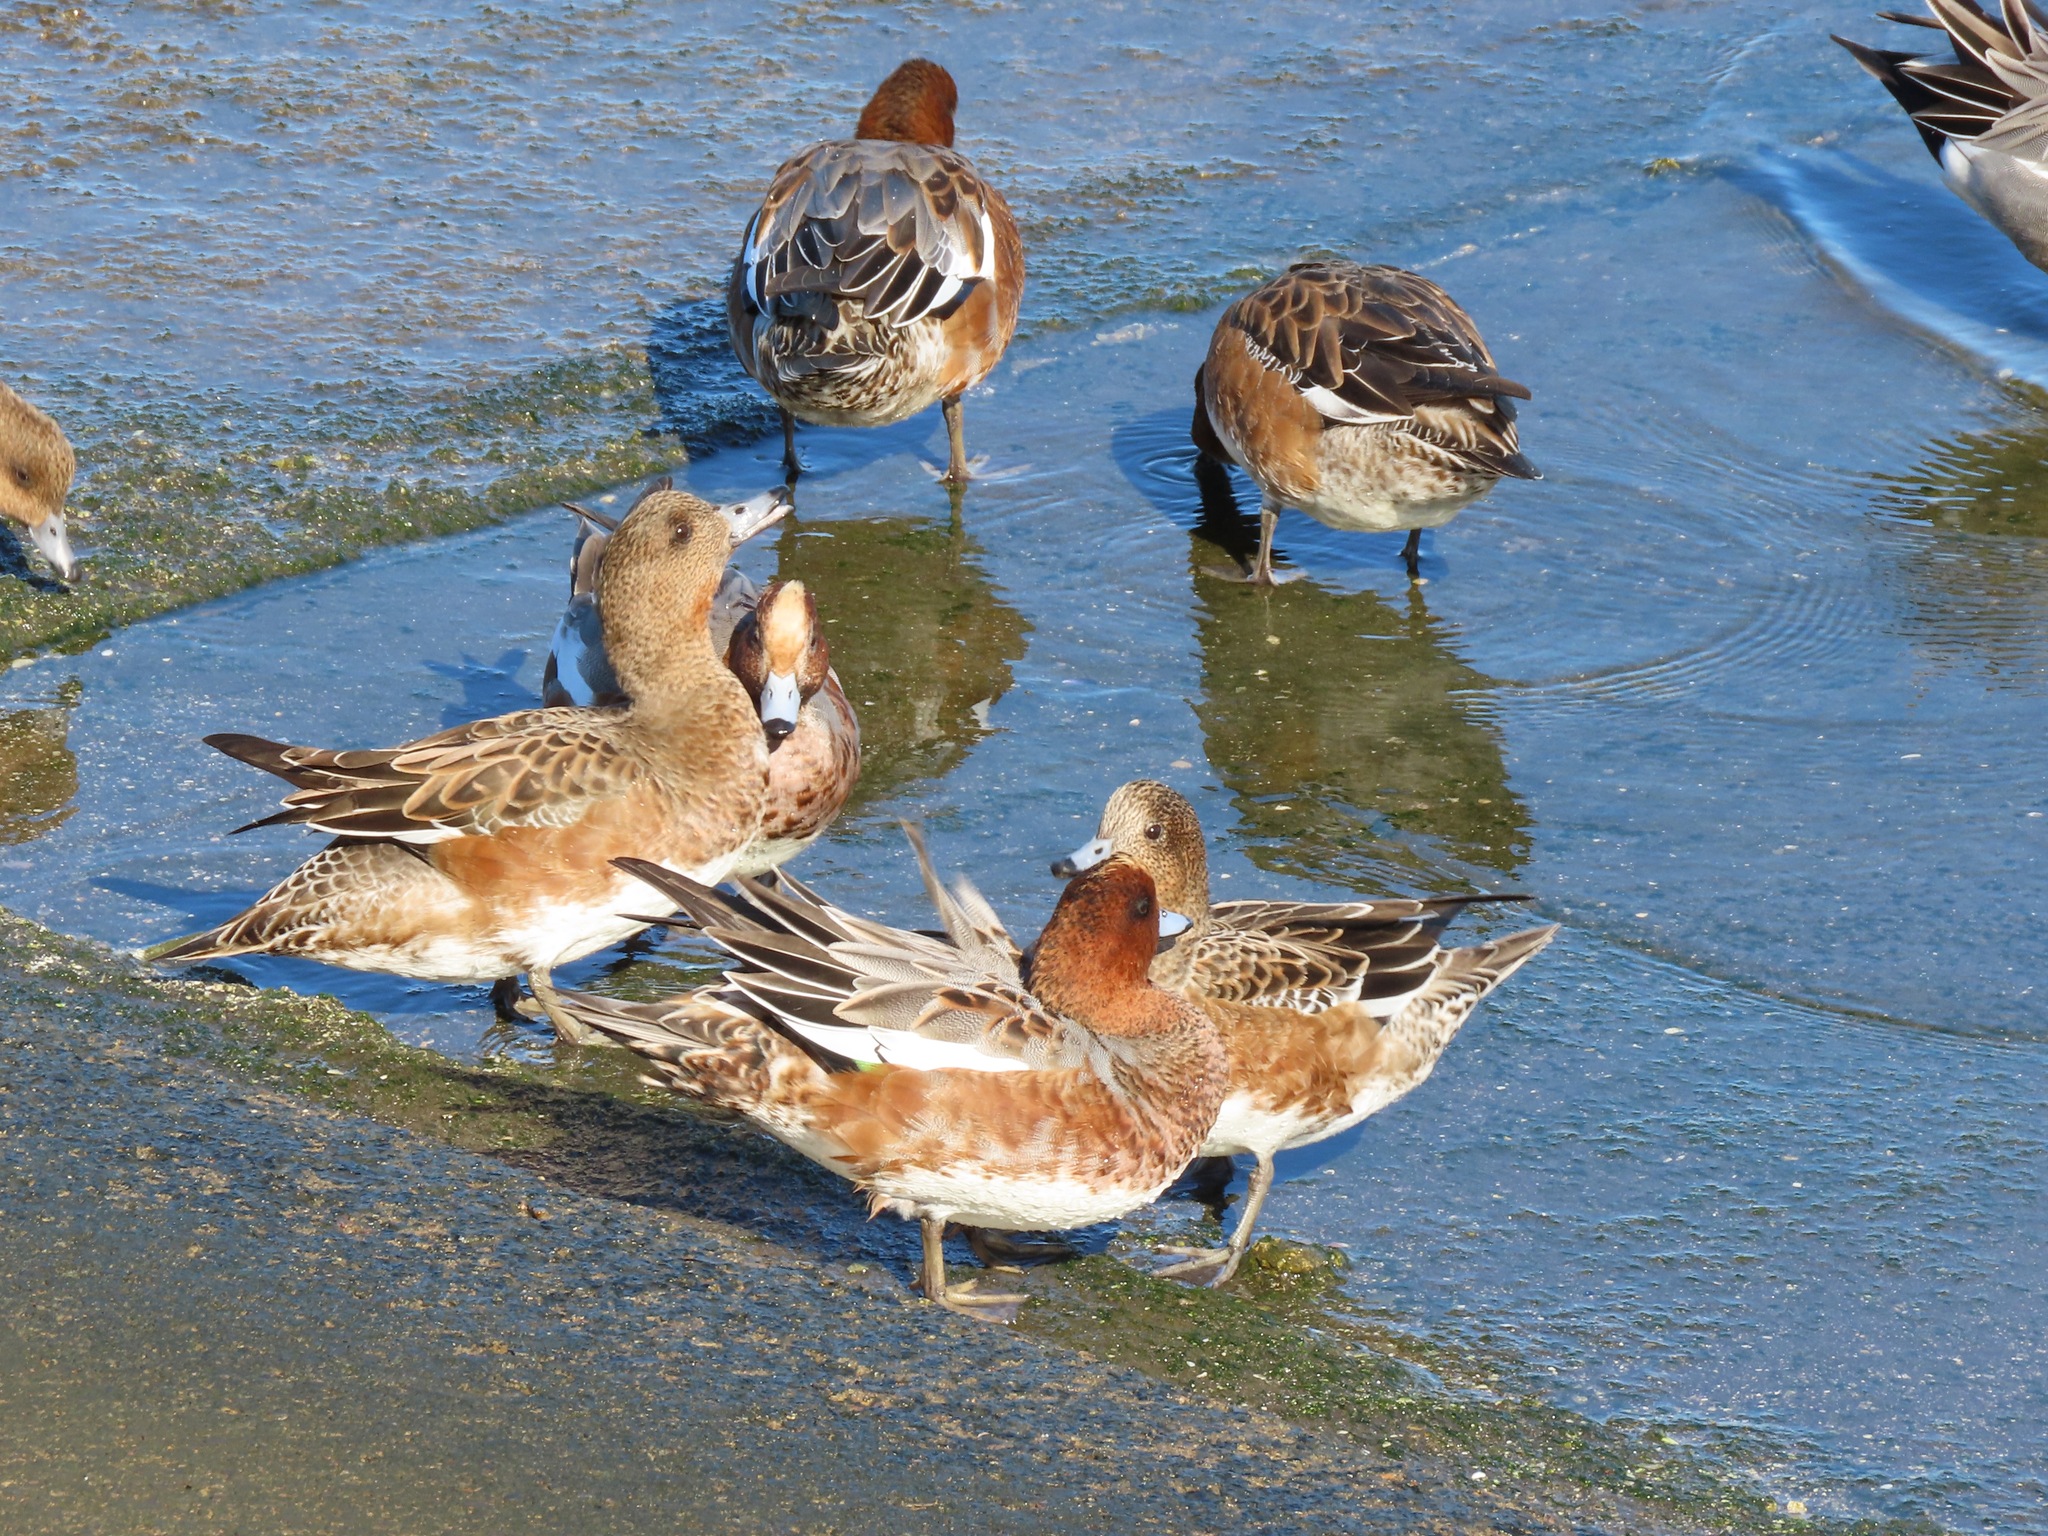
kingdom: Animalia
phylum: Chordata
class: Aves
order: Anseriformes
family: Anatidae
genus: Mareca
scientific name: Mareca penelope
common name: Eurasian wigeon
